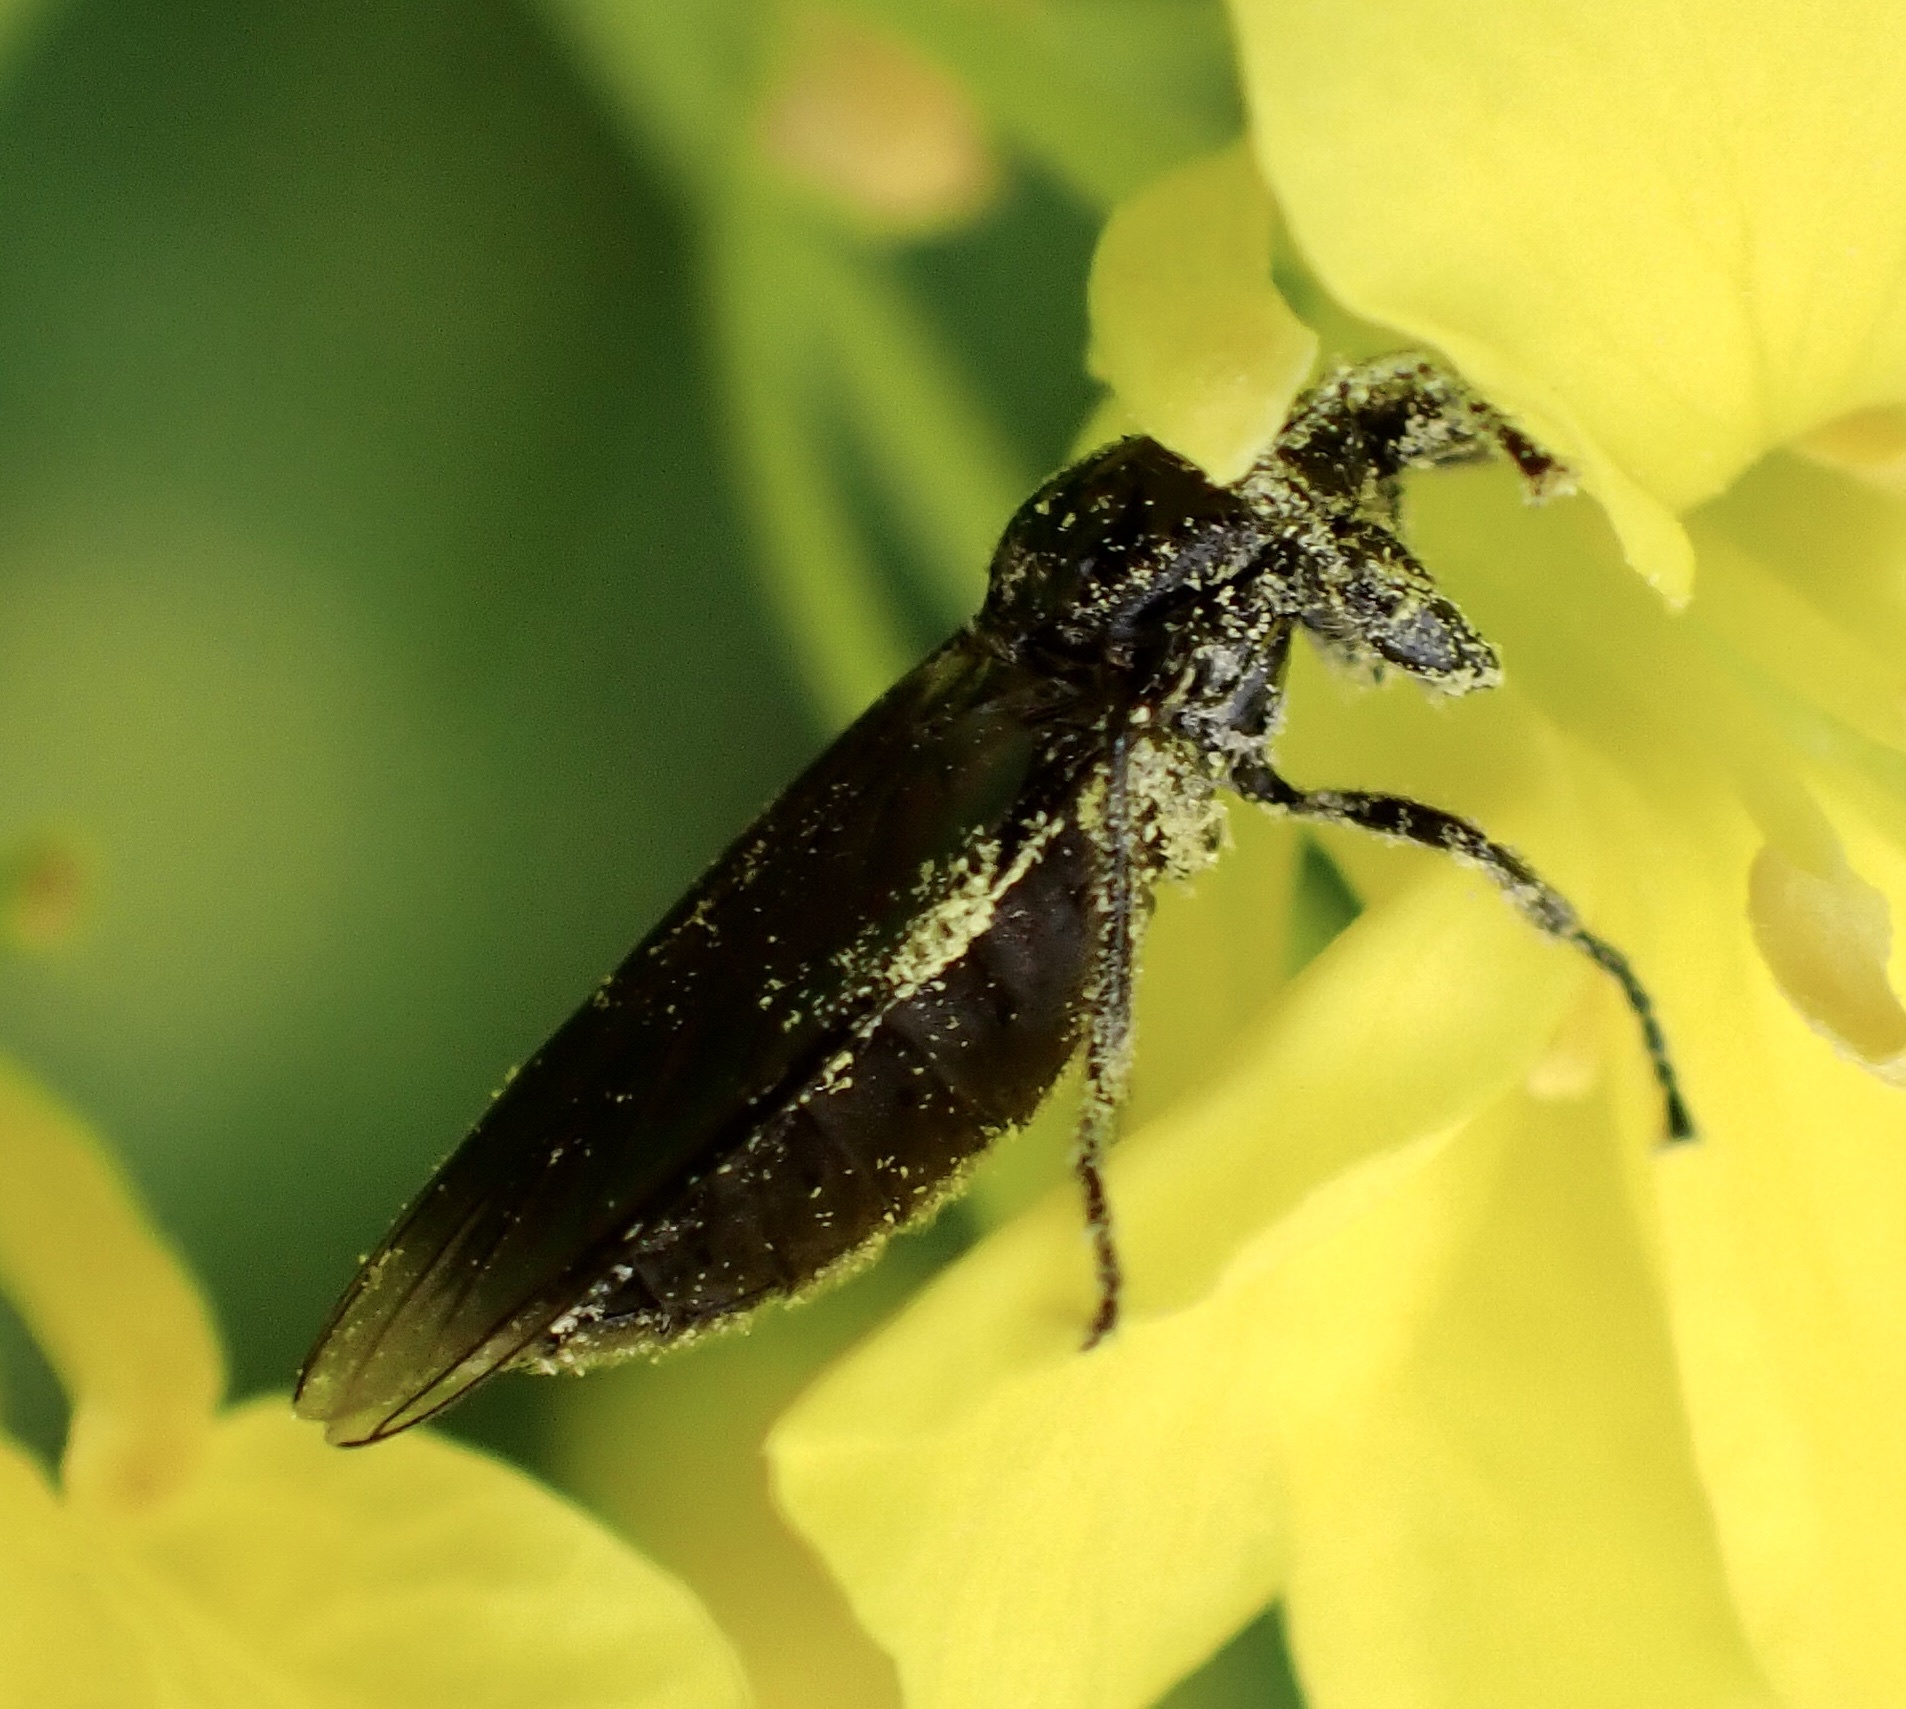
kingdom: Animalia
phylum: Arthropoda
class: Insecta
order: Diptera
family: Bibionidae
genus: Dilophus
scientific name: Dilophus febrilis
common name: Fever fly
